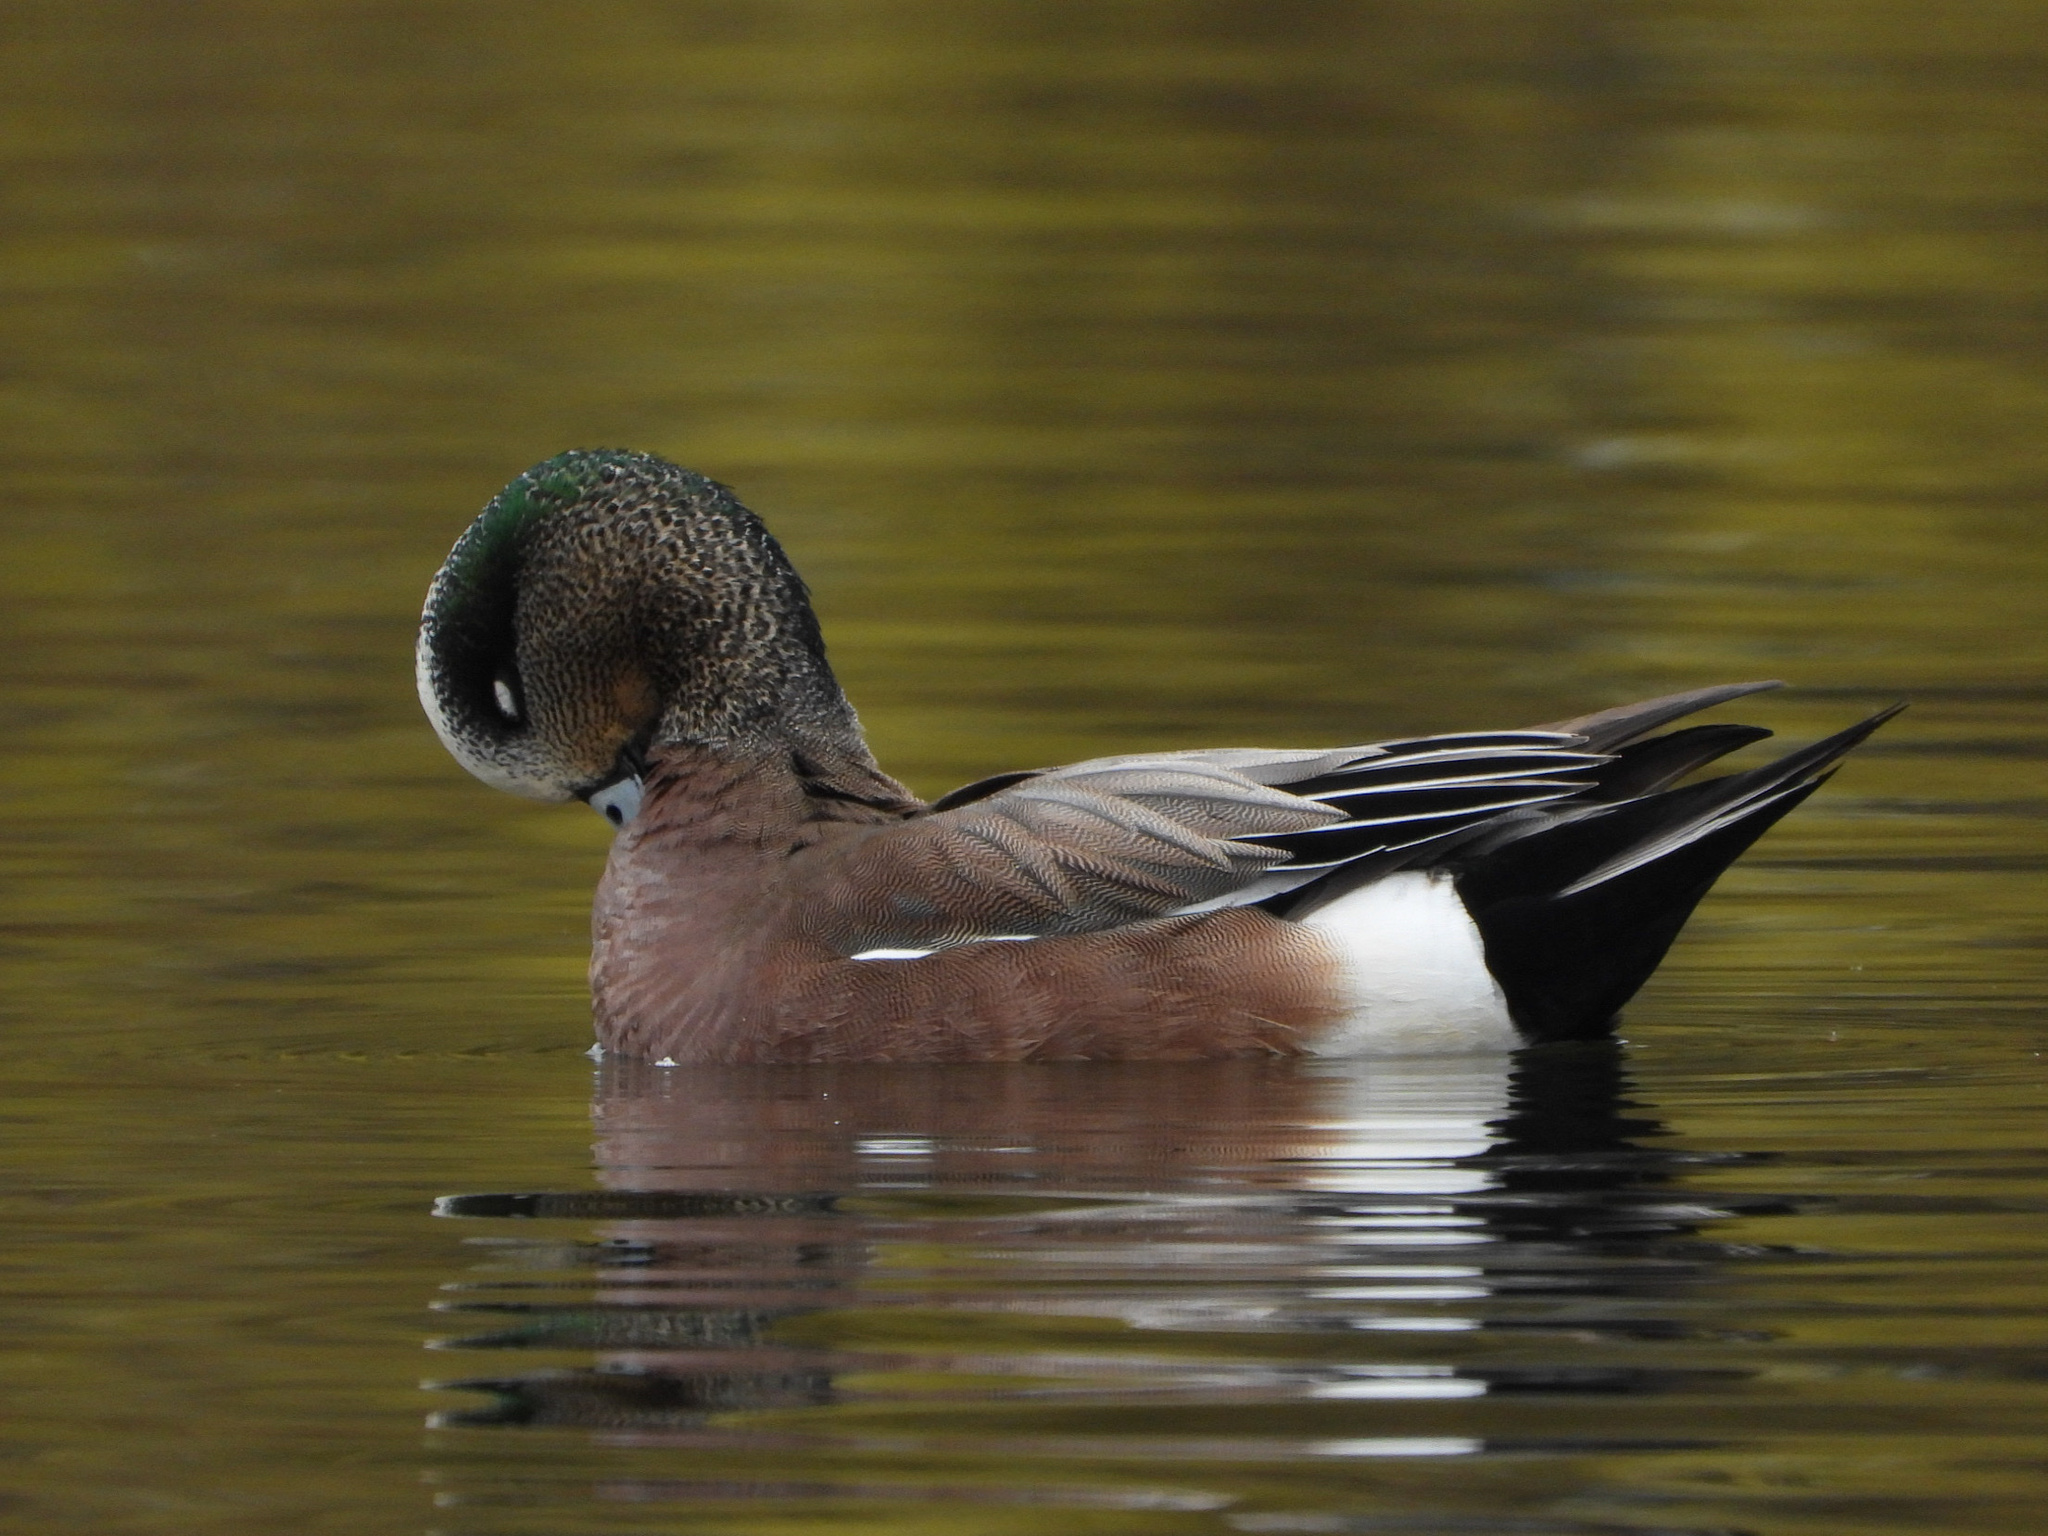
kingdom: Animalia
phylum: Chordata
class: Aves
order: Anseriformes
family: Anatidae
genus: Mareca
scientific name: Mareca americana
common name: American wigeon
